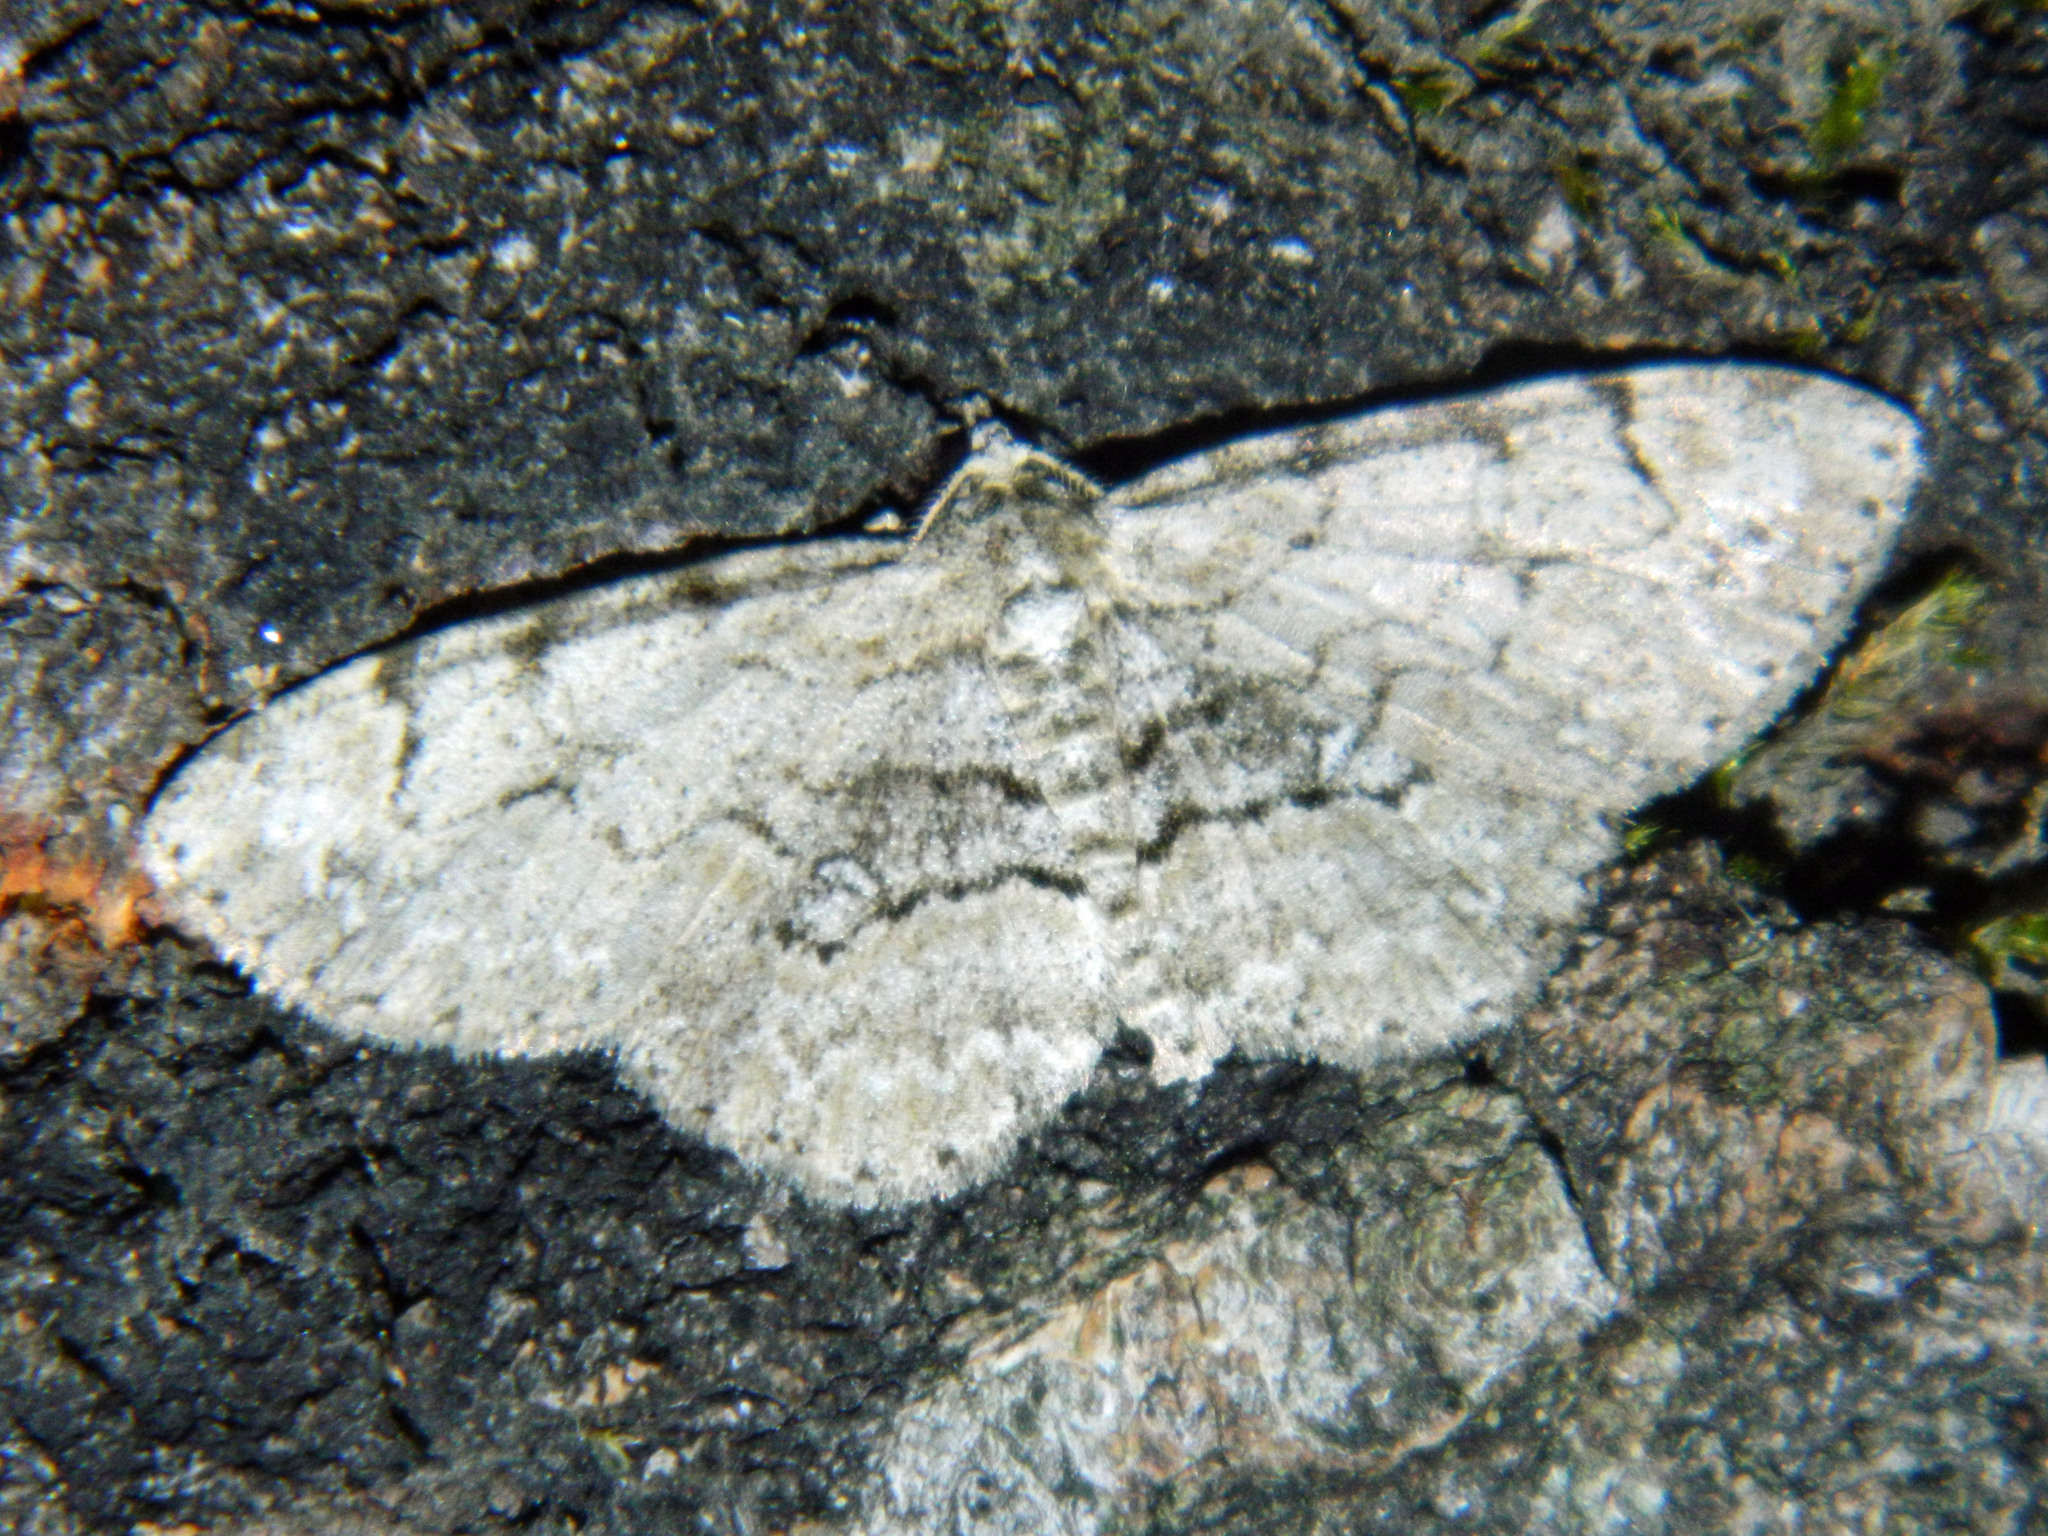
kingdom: Animalia
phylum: Arthropoda
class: Insecta
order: Lepidoptera
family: Geometridae
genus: Iridopsis
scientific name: Iridopsis ephyraria
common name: Pale-winged gray
